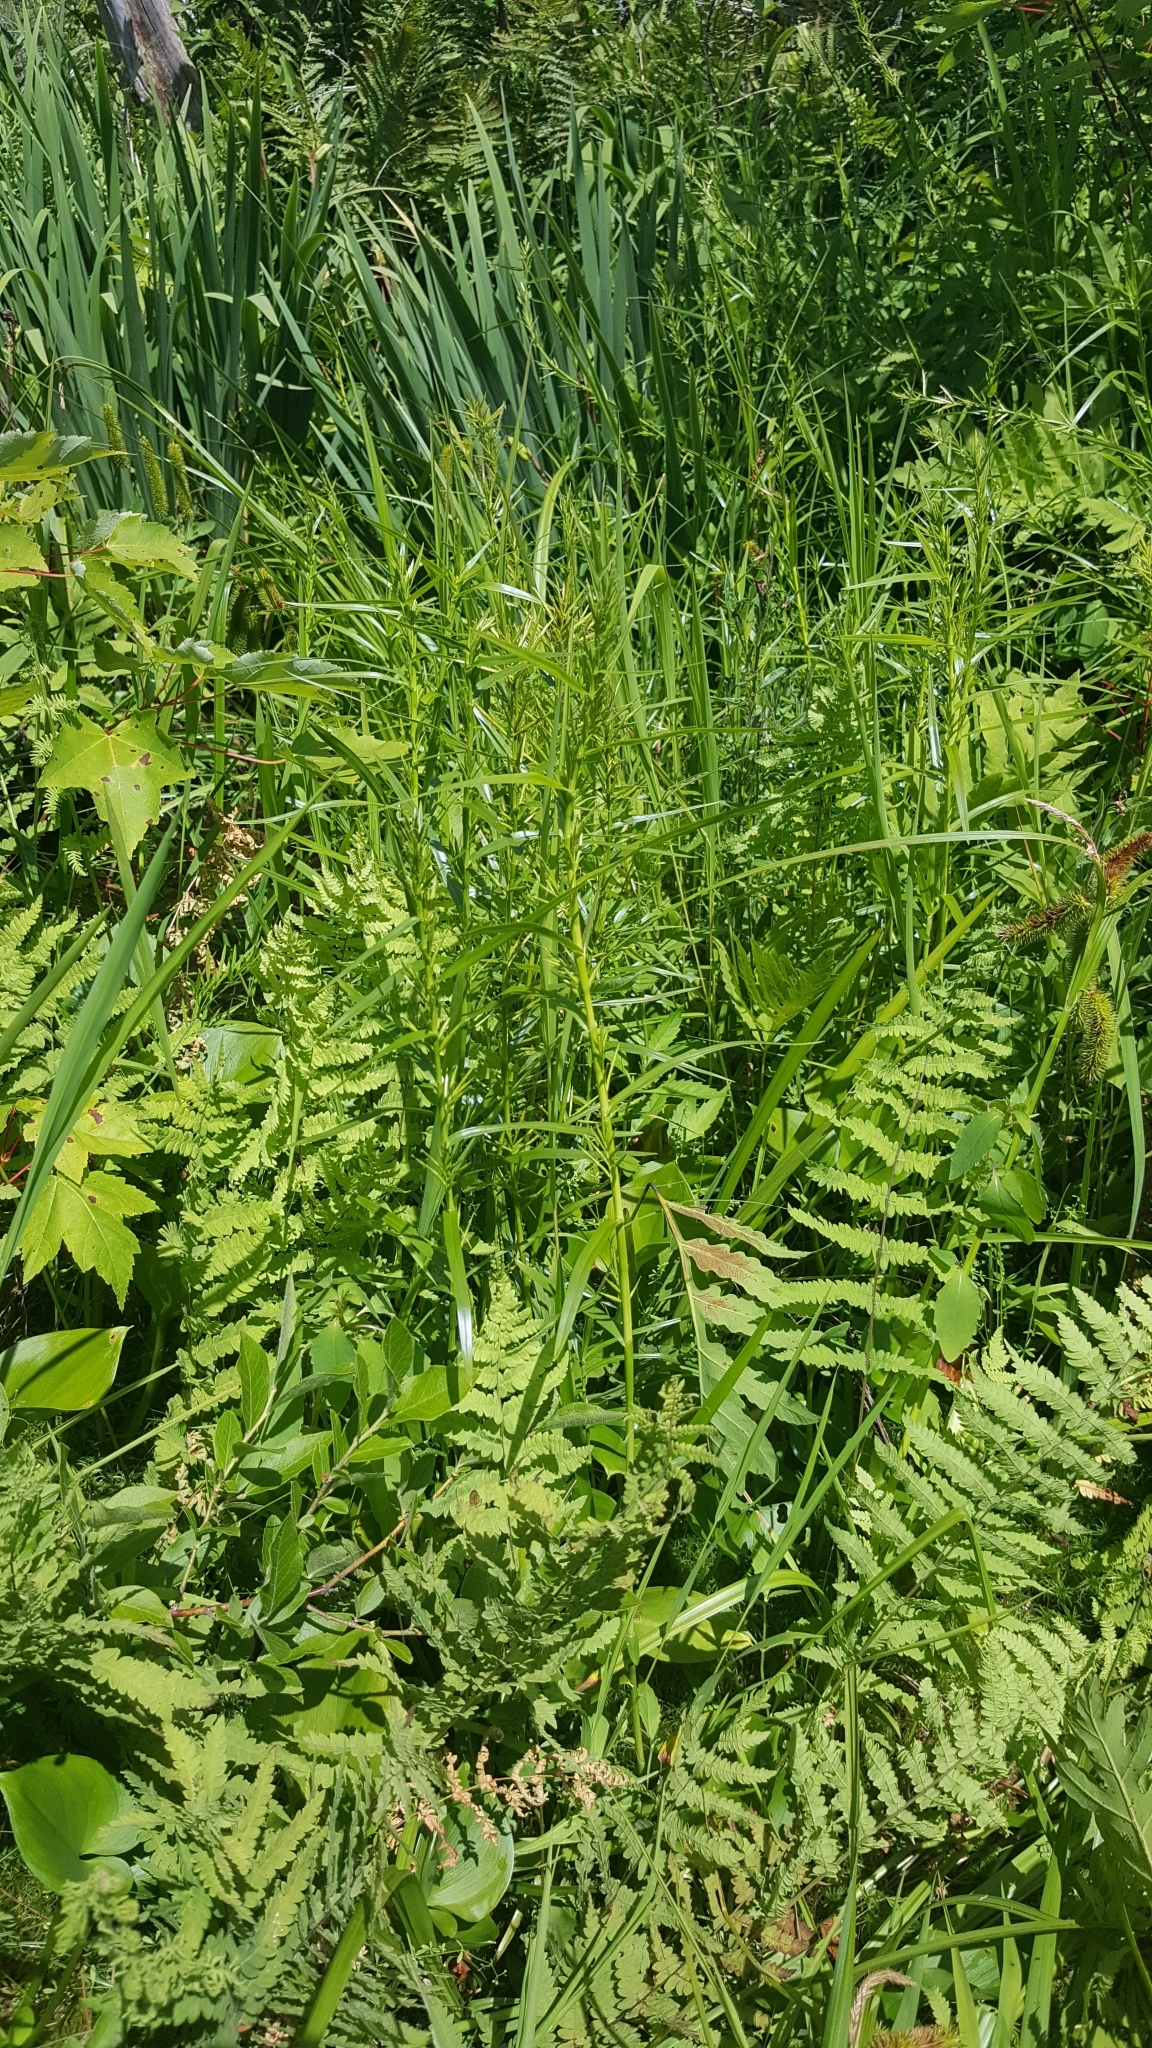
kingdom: Plantae
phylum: Tracheophyta
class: Liliopsida
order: Poales
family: Cyperaceae
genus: Dulichium
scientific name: Dulichium arundinaceum
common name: Three-way sedge
